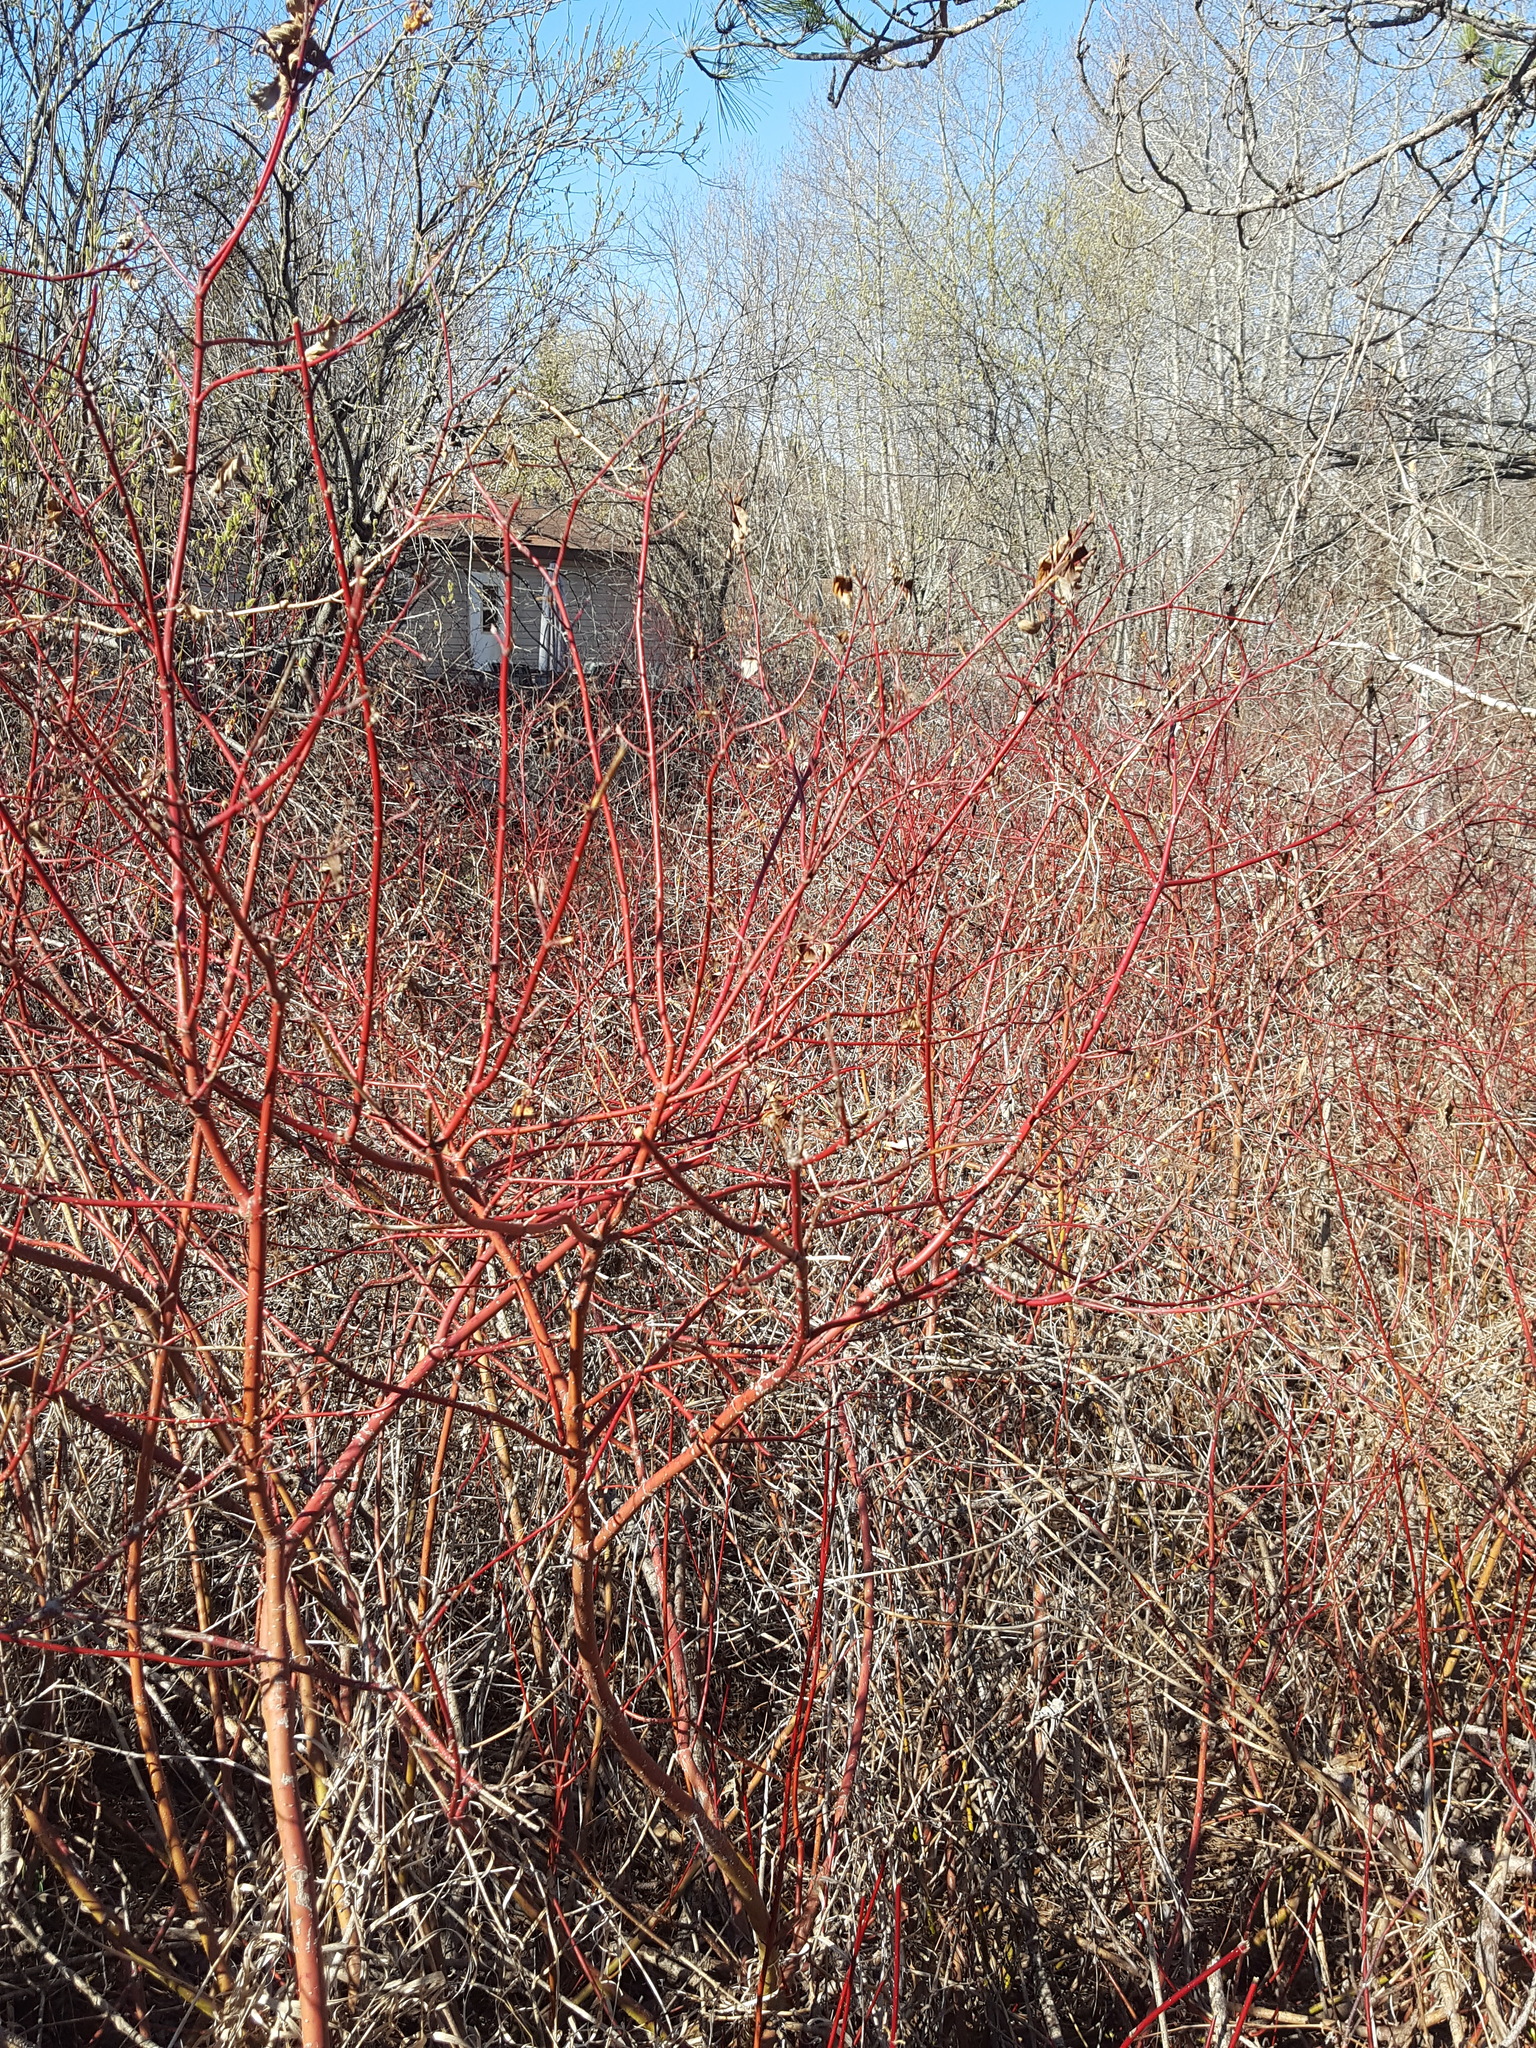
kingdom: Plantae
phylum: Tracheophyta
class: Magnoliopsida
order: Cornales
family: Cornaceae
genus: Cornus
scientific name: Cornus sericea
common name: Red-osier dogwood
